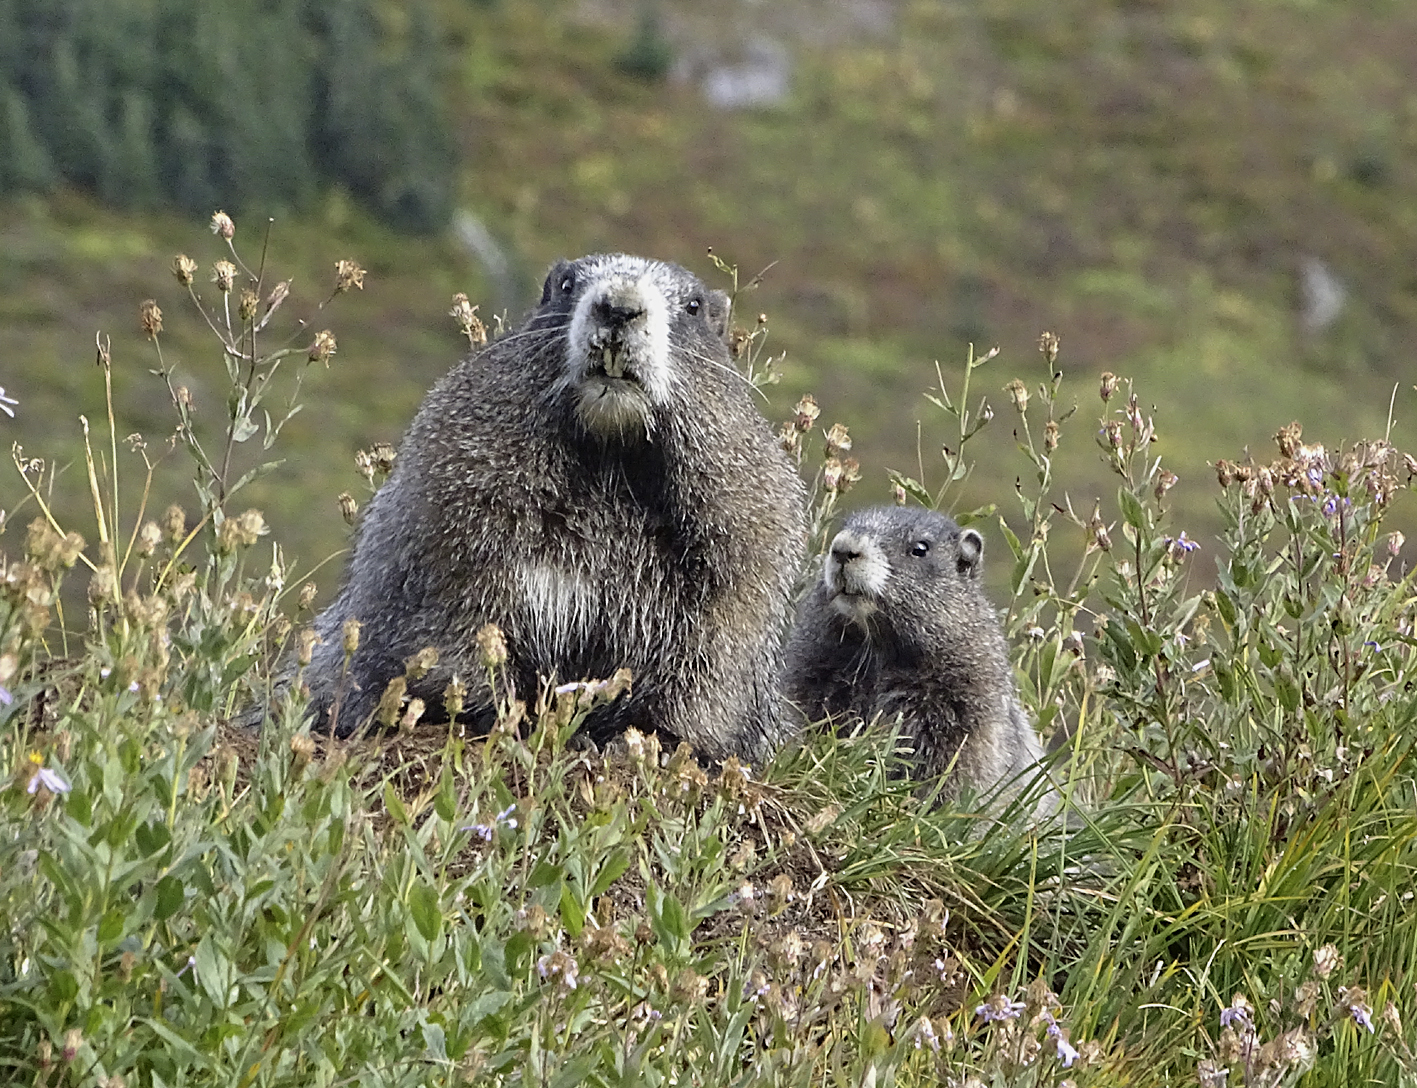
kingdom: Animalia
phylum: Chordata
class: Mammalia
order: Rodentia
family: Sciuridae
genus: Marmota
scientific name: Marmota caligata
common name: Hoary marmot
